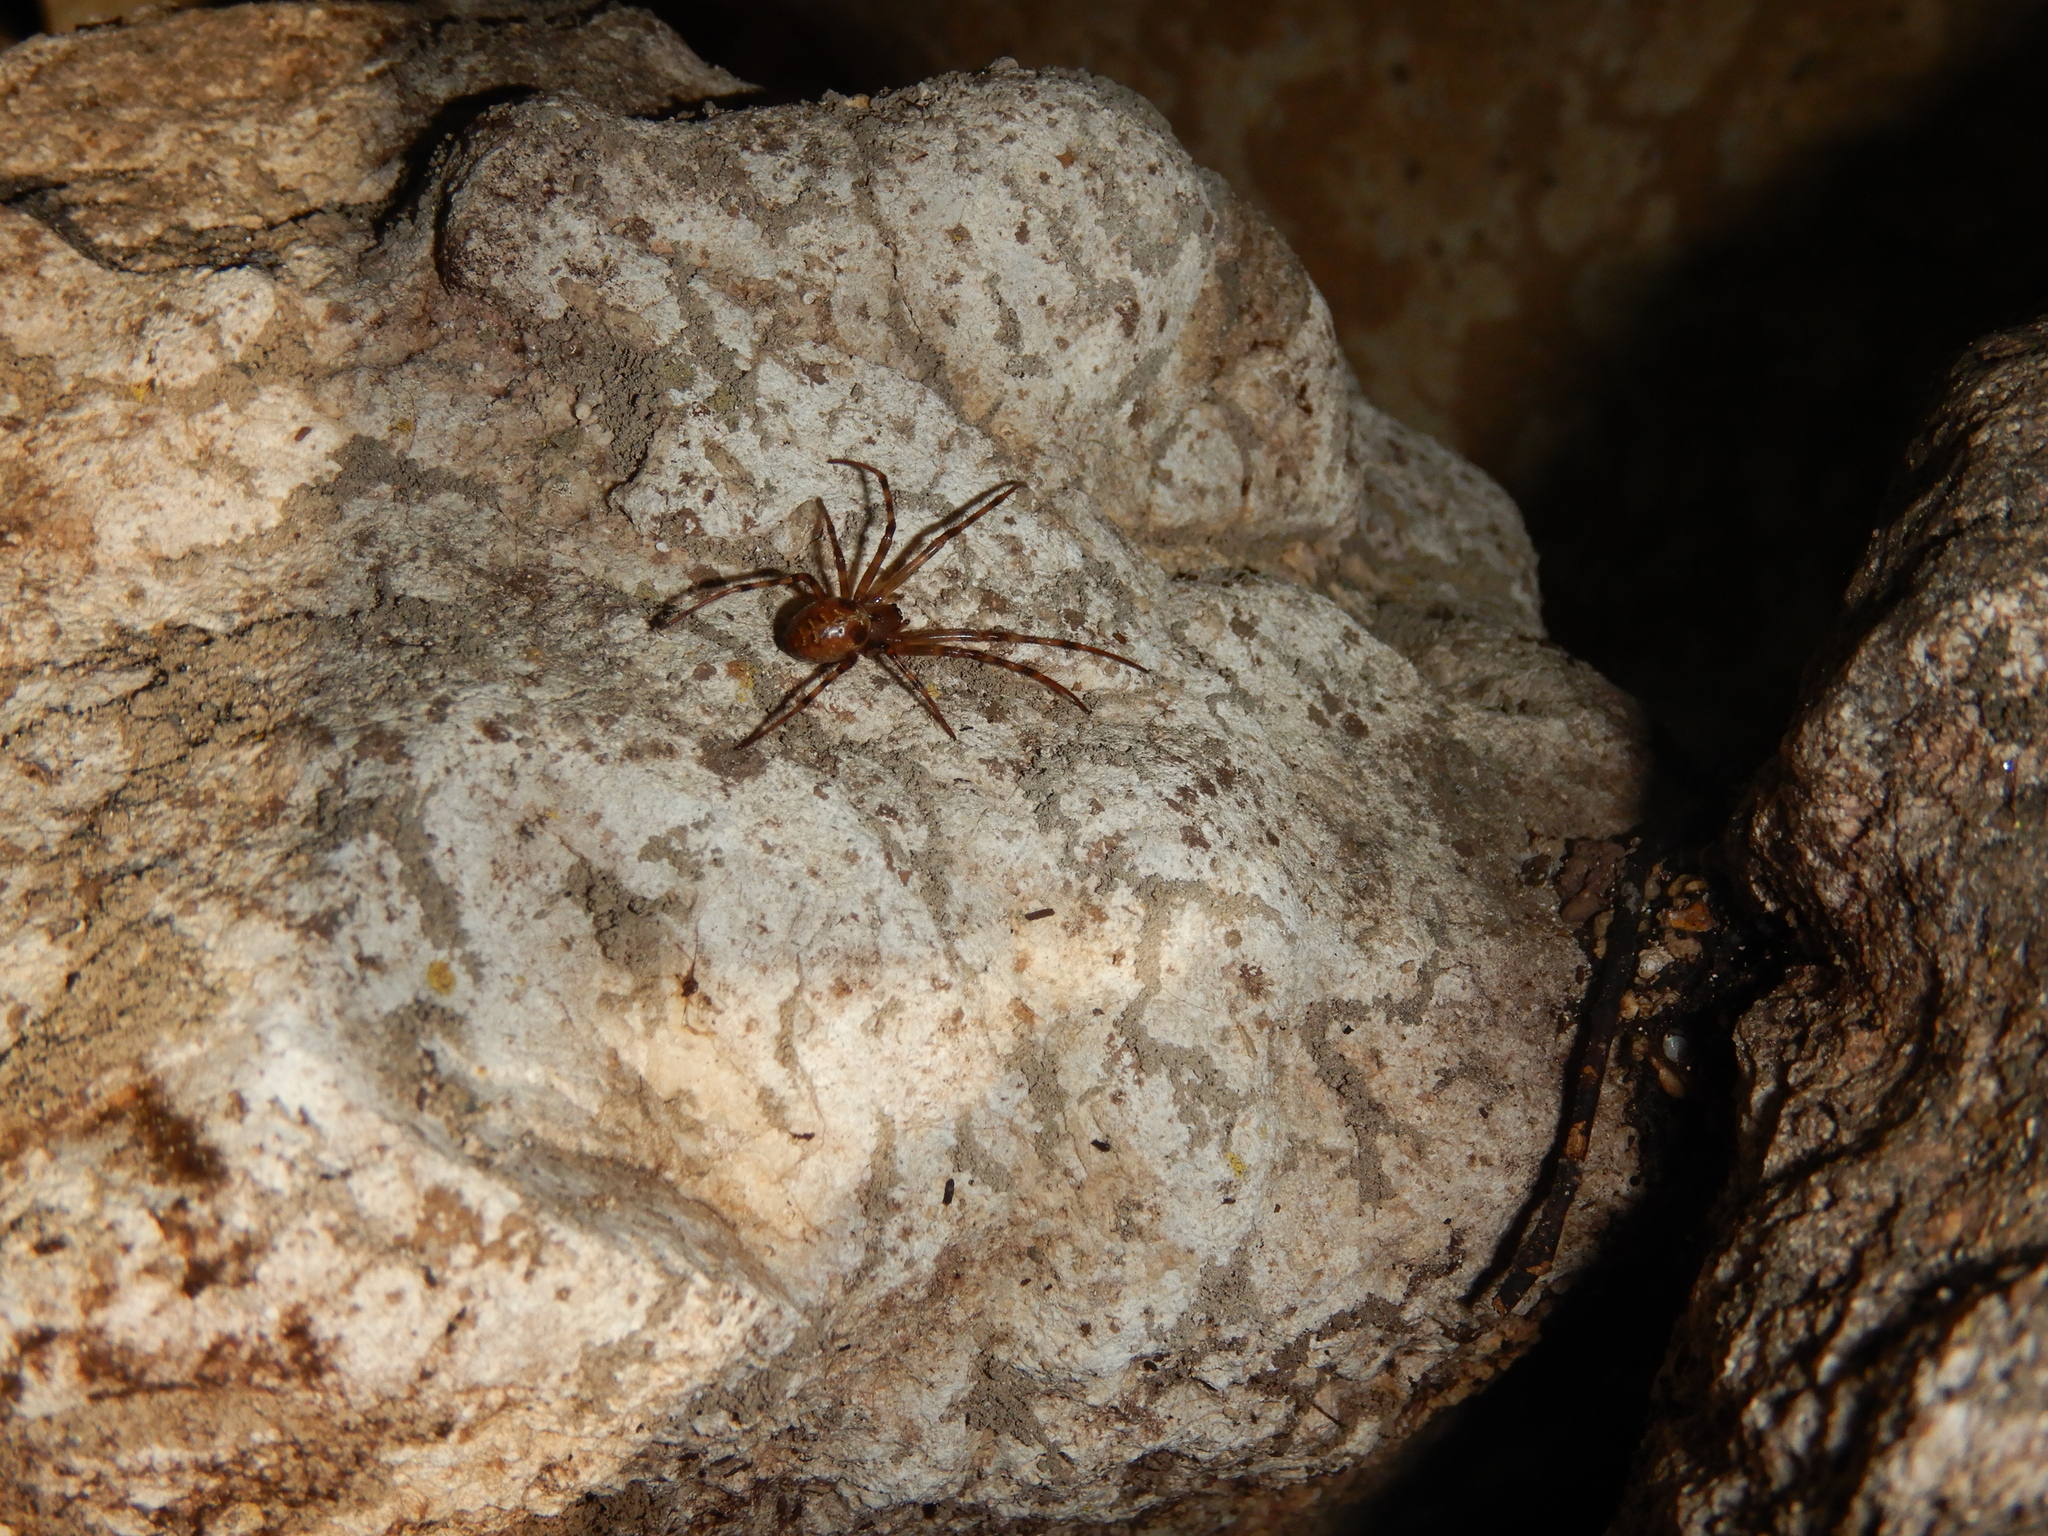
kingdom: Animalia
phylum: Arthropoda
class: Arachnida
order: Araneae
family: Tetragnathidae
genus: Meta
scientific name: Meta menardi
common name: Cave spider
